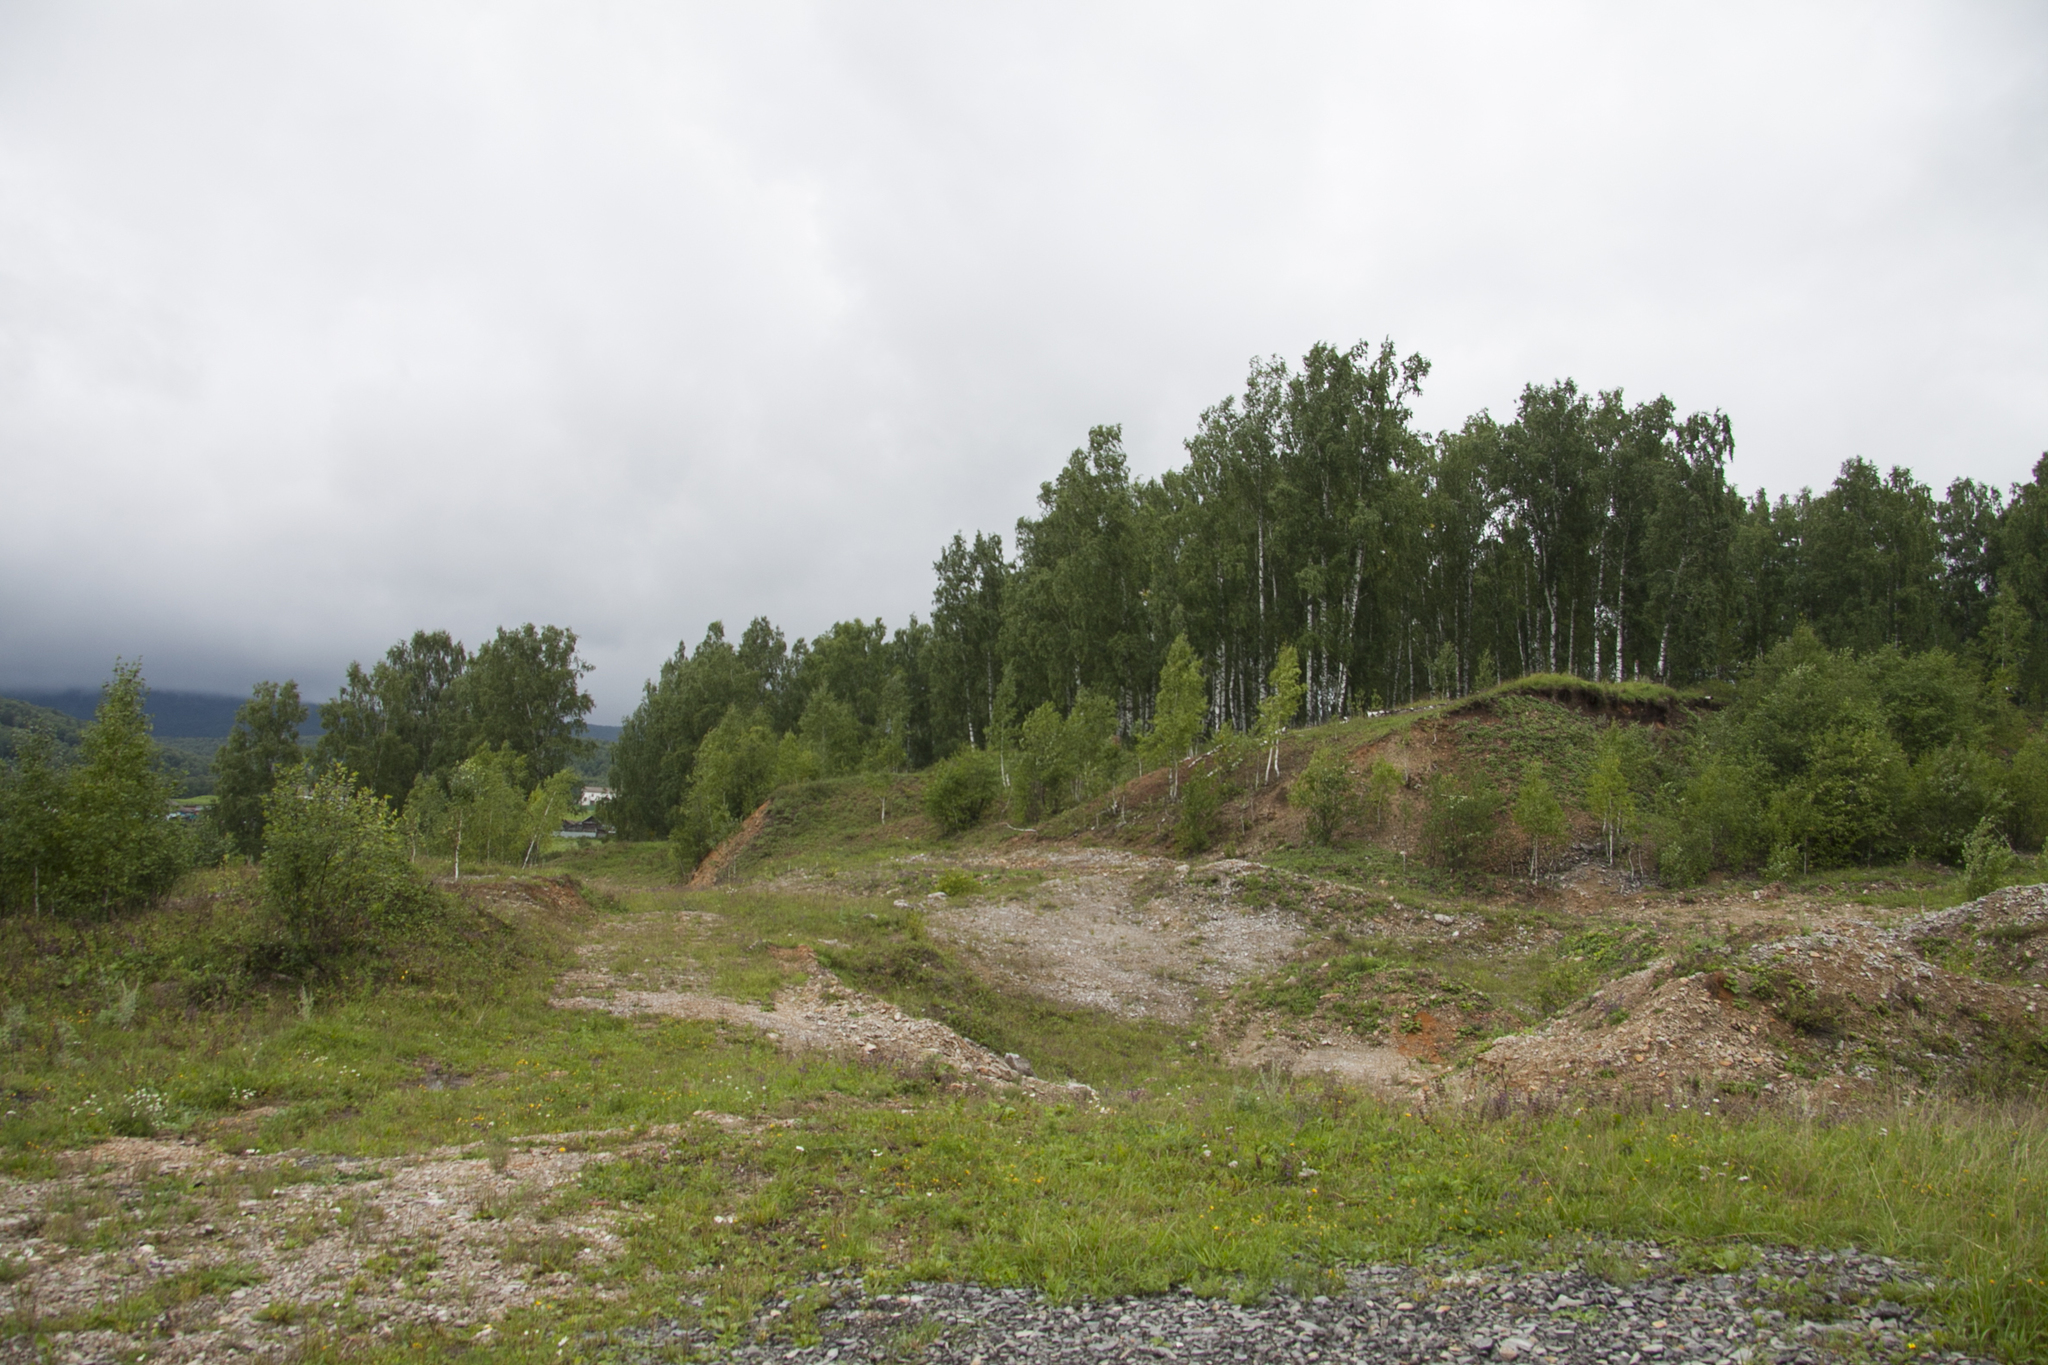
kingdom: Plantae
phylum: Tracheophyta
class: Magnoliopsida
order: Fagales
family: Betulaceae
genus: Betula
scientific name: Betula pendula
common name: Silver birch
